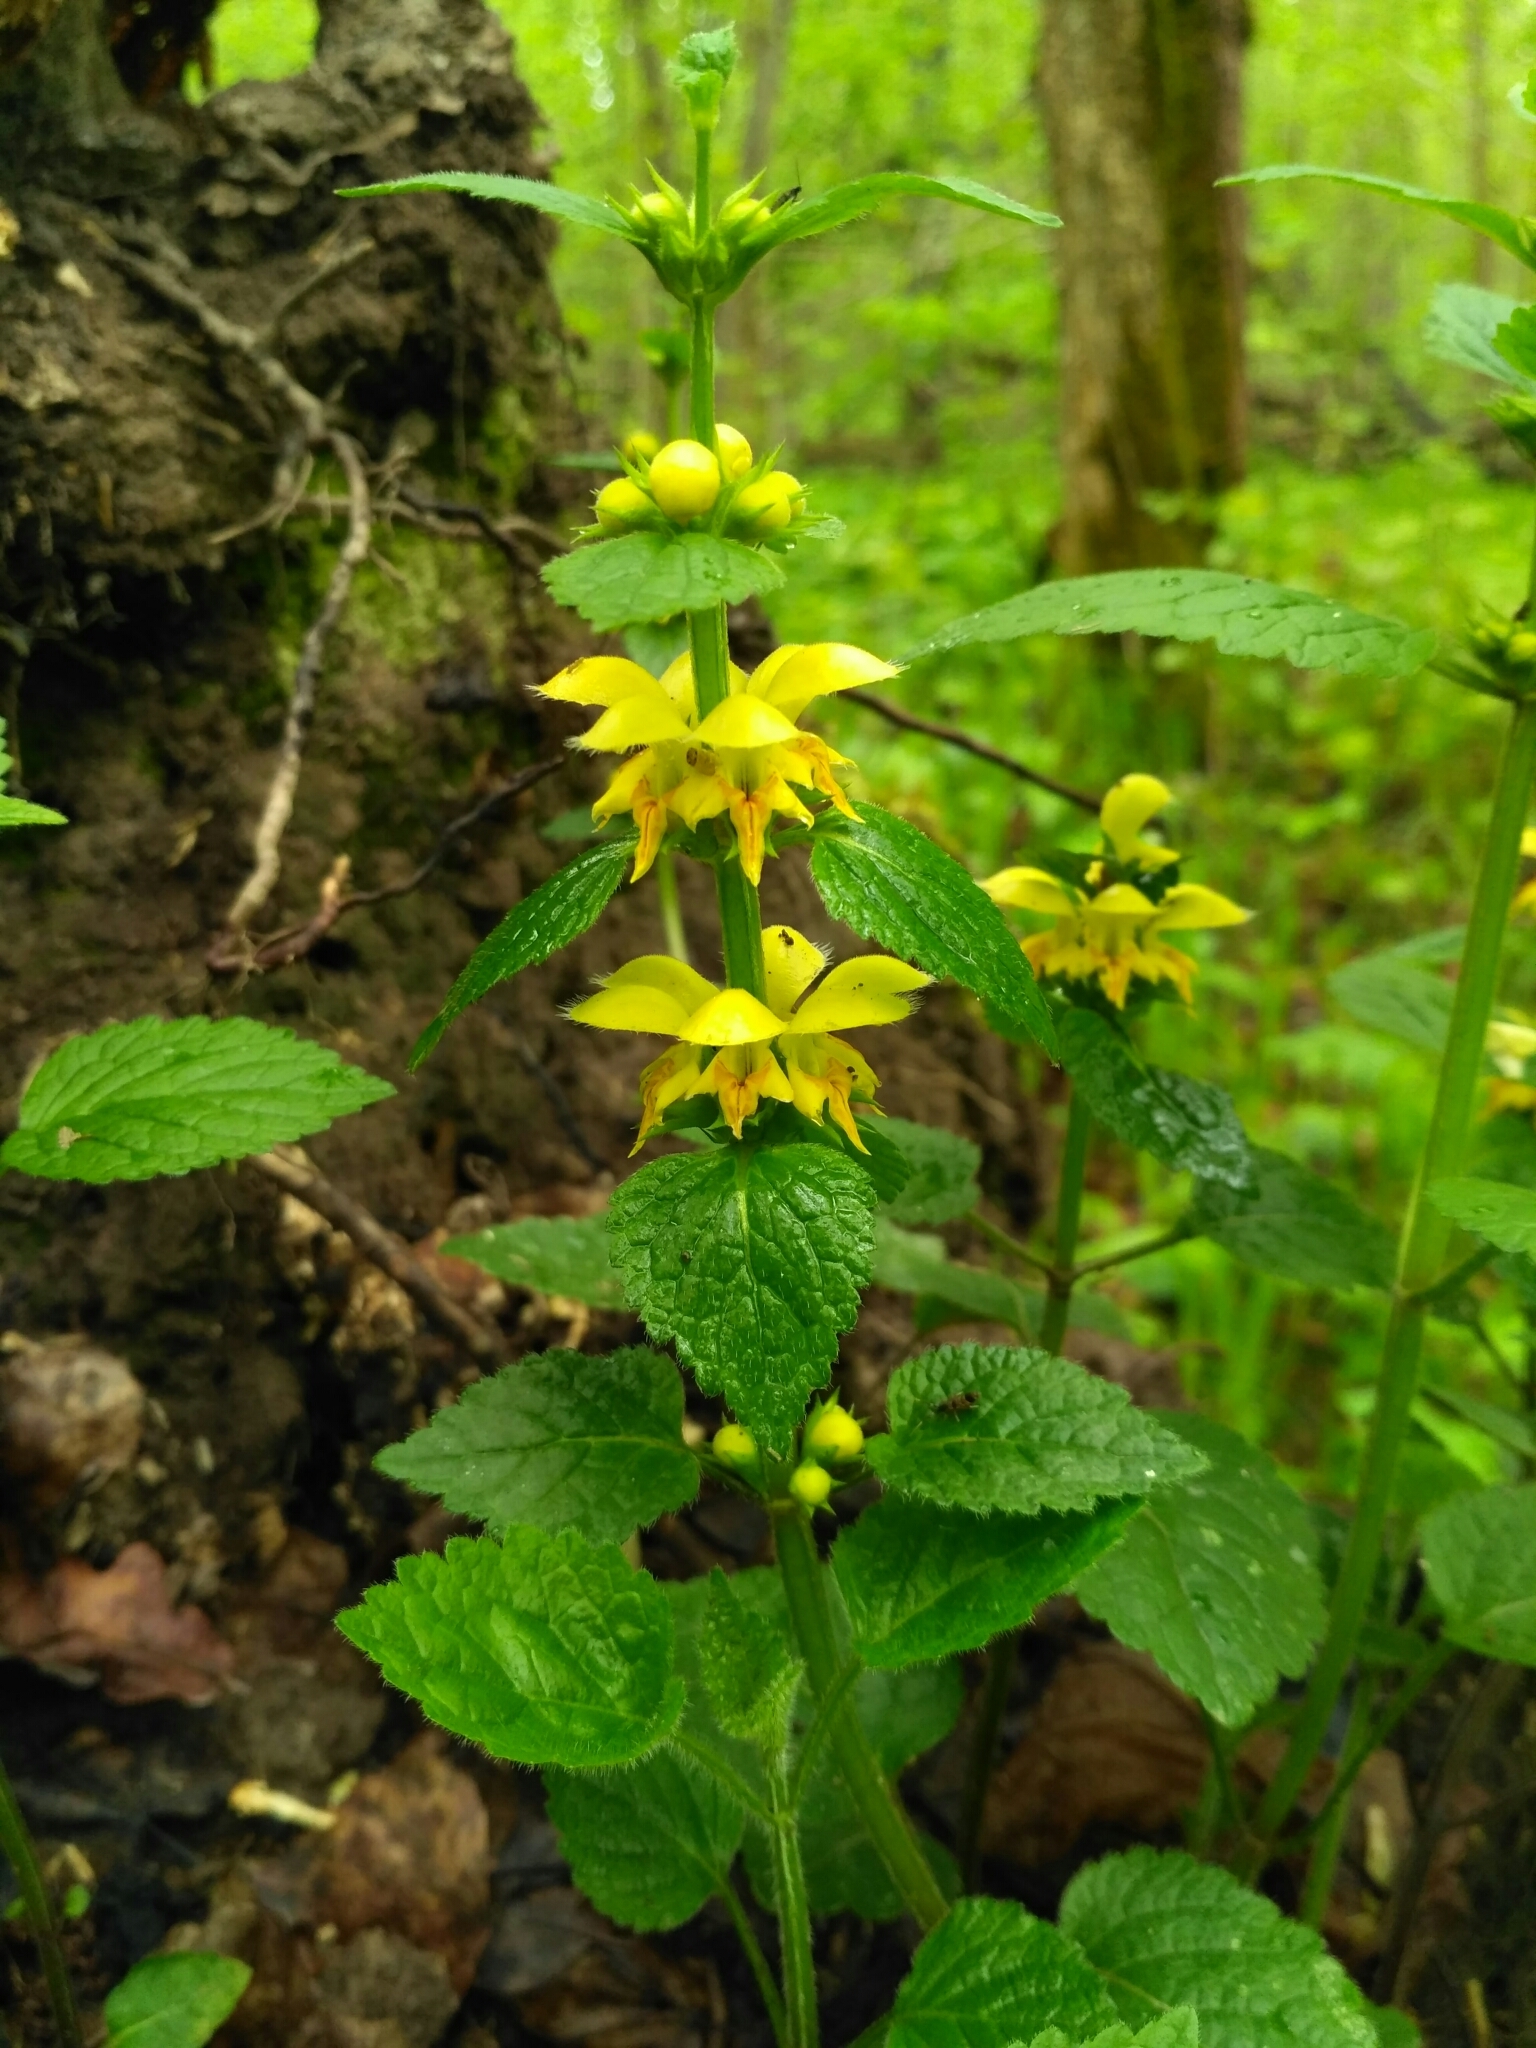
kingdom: Plantae
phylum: Tracheophyta
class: Magnoliopsida
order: Lamiales
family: Lamiaceae
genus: Lamium
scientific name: Lamium galeobdolon
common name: Yellow archangel
